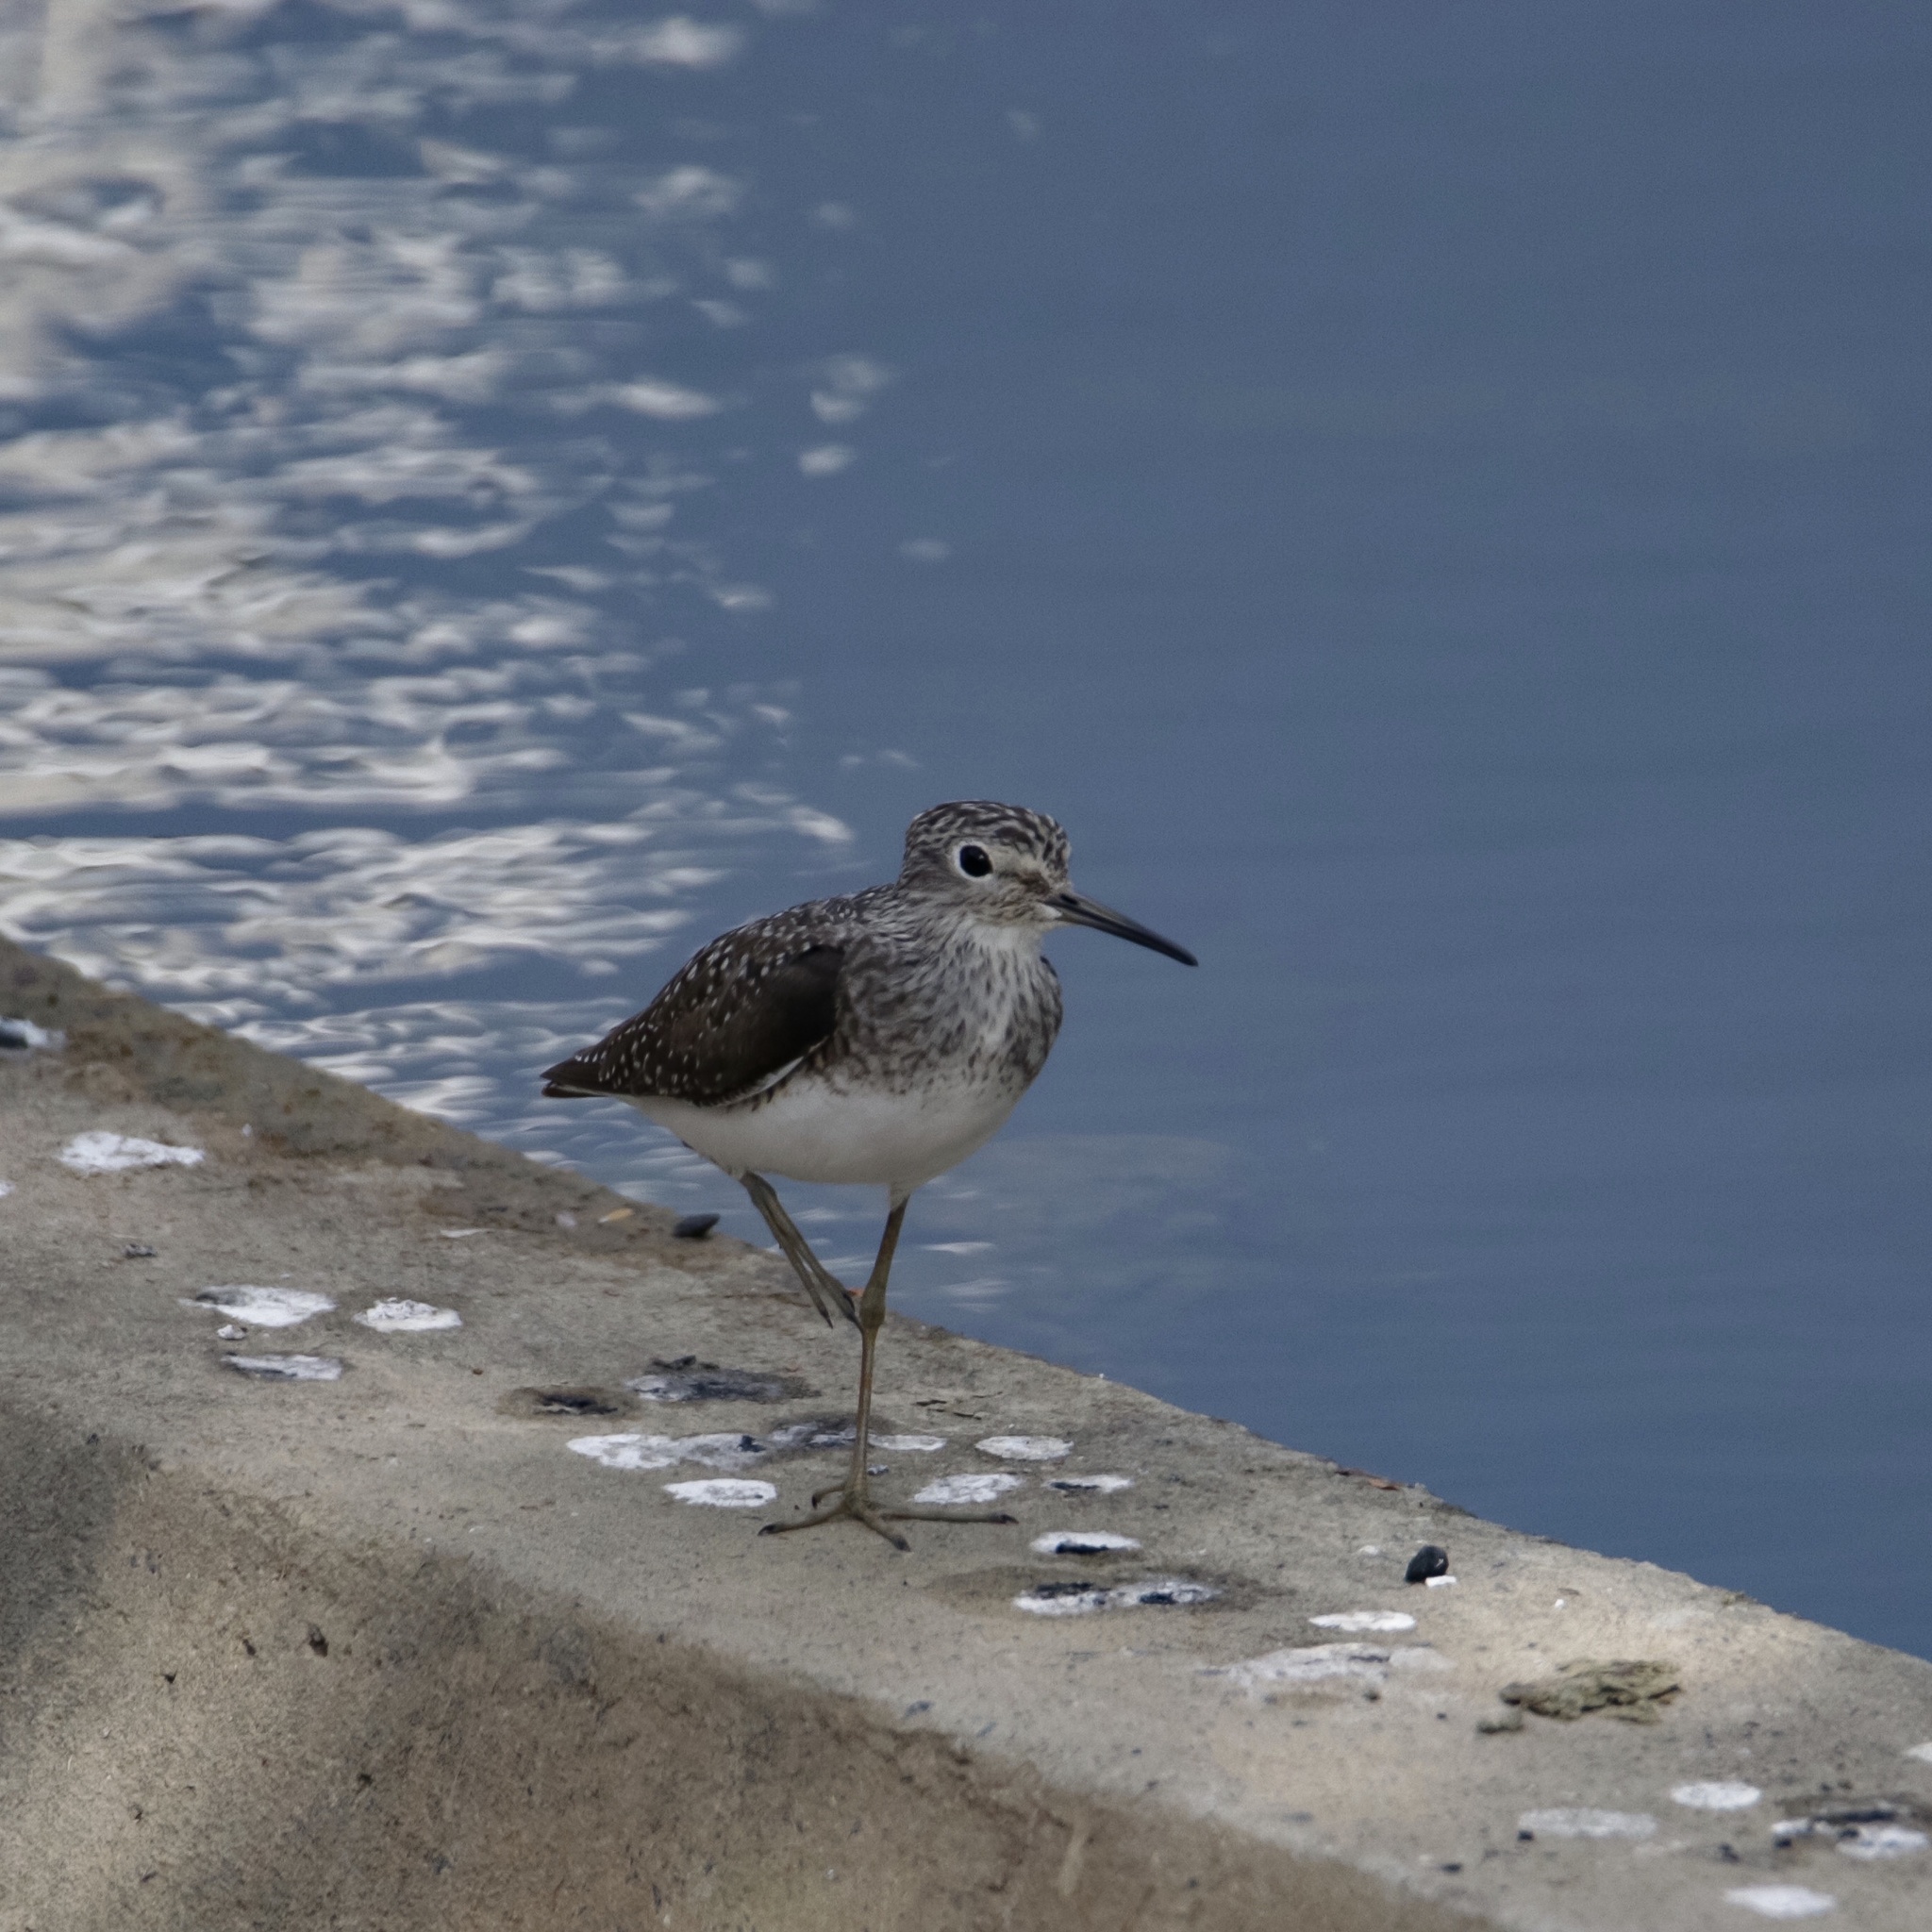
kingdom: Animalia
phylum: Chordata
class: Aves
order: Charadriiformes
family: Scolopacidae
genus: Tringa
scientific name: Tringa solitaria
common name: Solitary sandpiper
